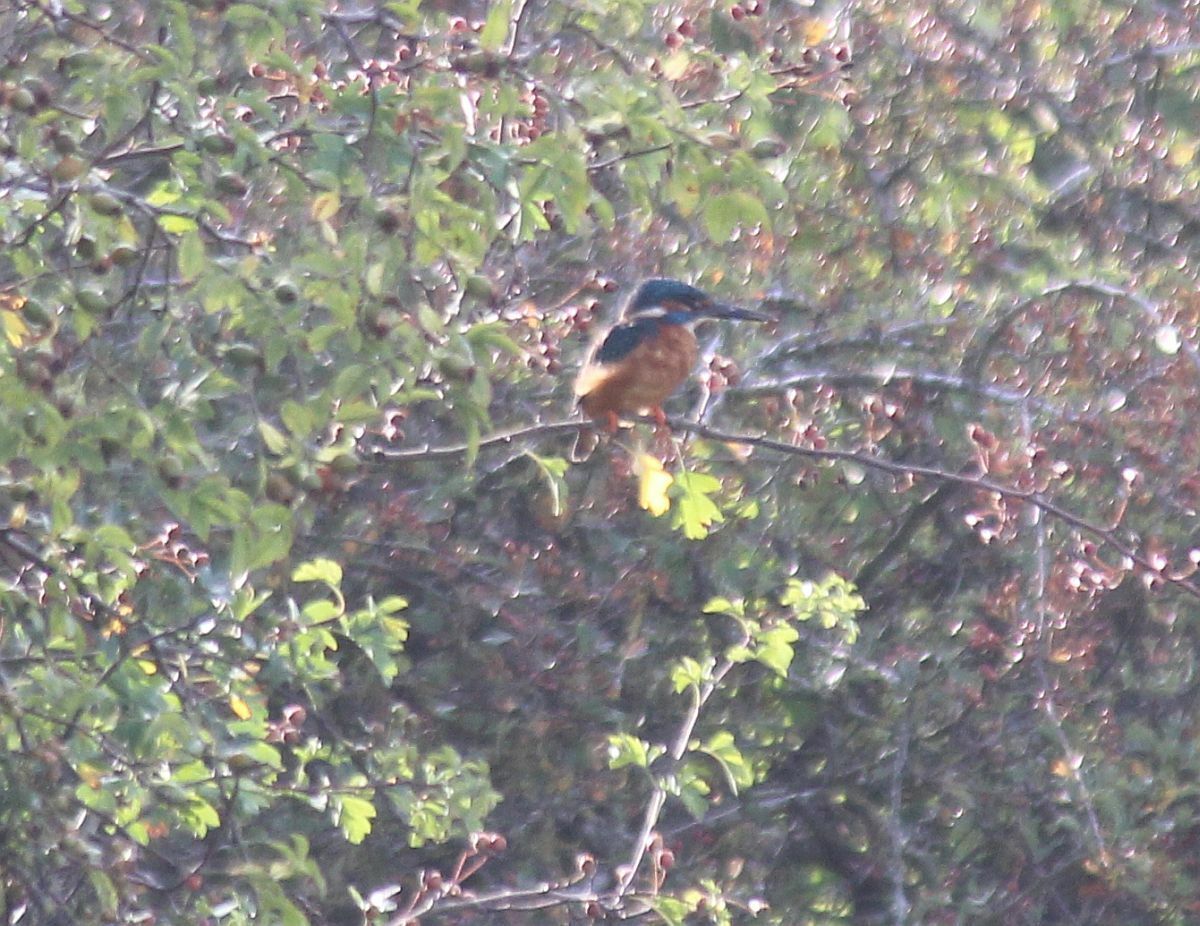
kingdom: Animalia
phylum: Chordata
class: Aves
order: Coraciiformes
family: Alcedinidae
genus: Alcedo
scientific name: Alcedo atthis
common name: Common kingfisher
